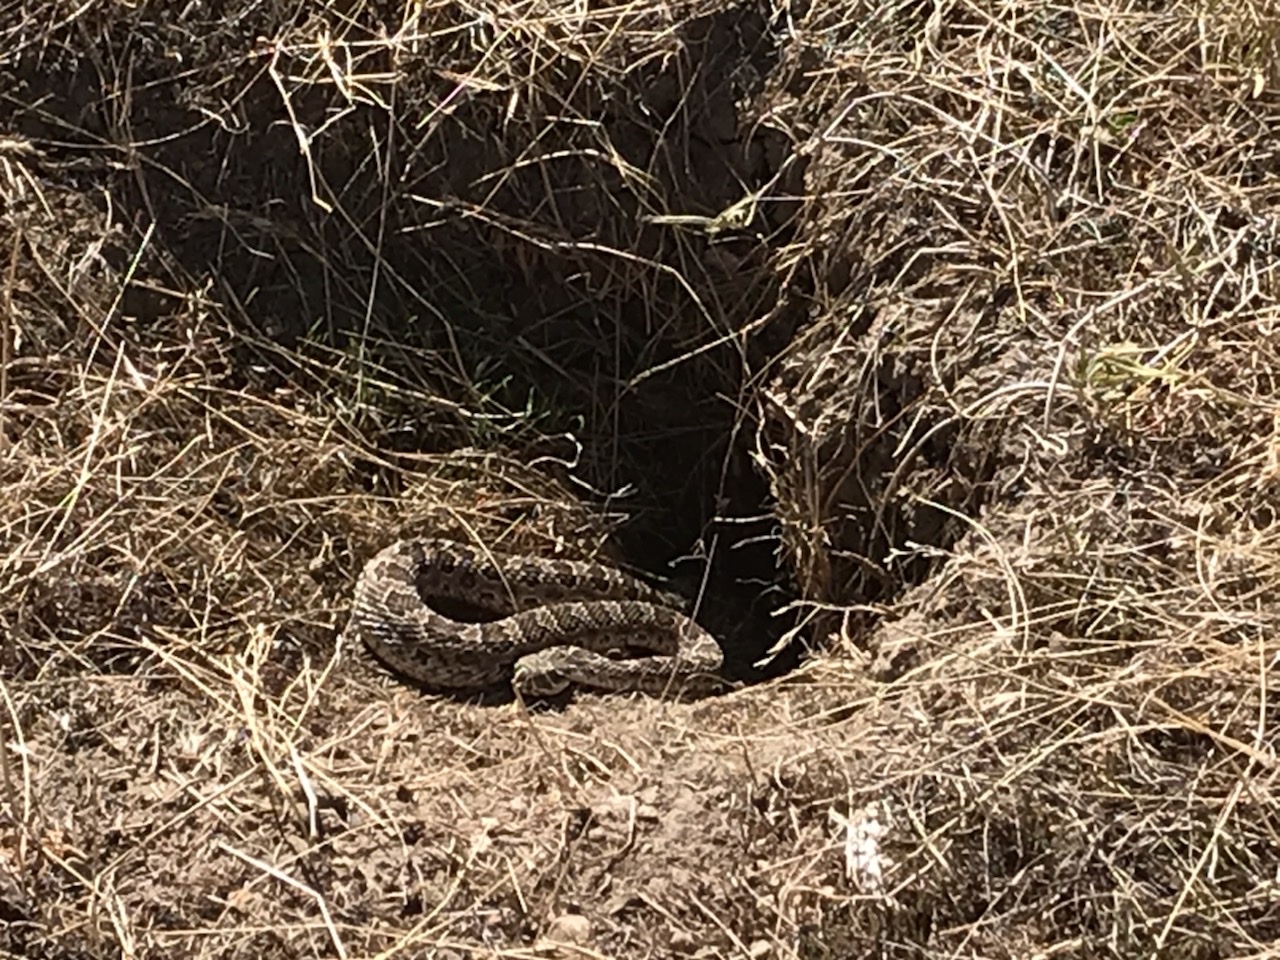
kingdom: Animalia
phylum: Chordata
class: Squamata
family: Viperidae
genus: Crotalus
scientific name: Crotalus viridis
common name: Prairie rattlesnake
